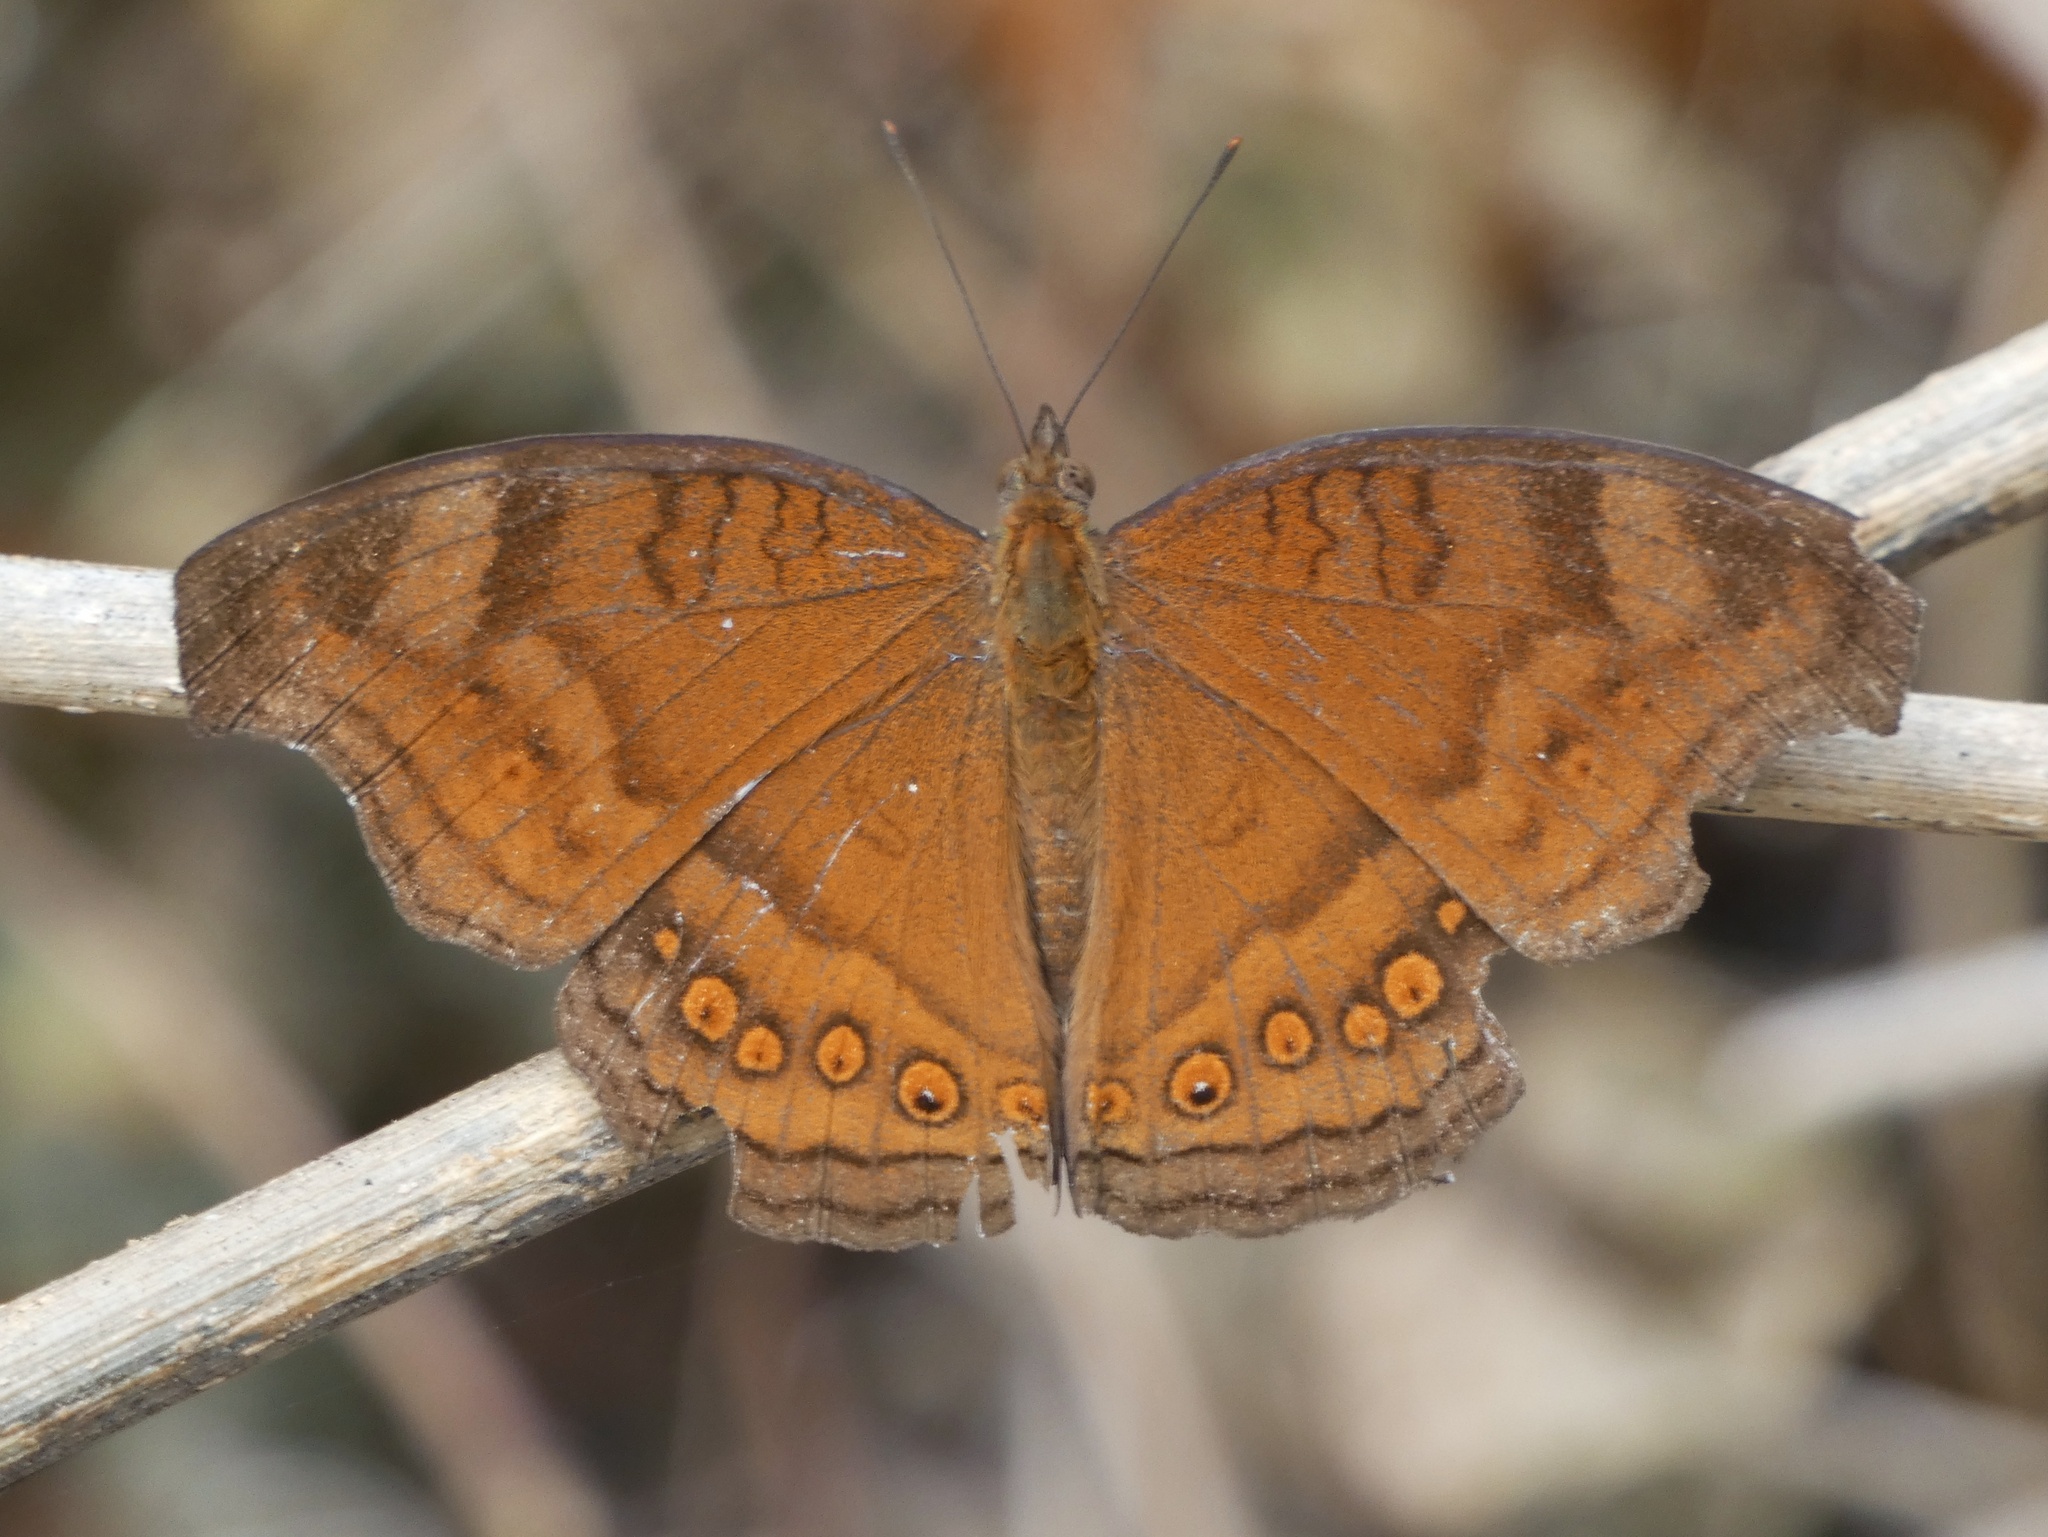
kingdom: Animalia
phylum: Arthropoda
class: Insecta
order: Lepidoptera
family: Nymphalidae
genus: Junonia
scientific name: Junonia hedonia
